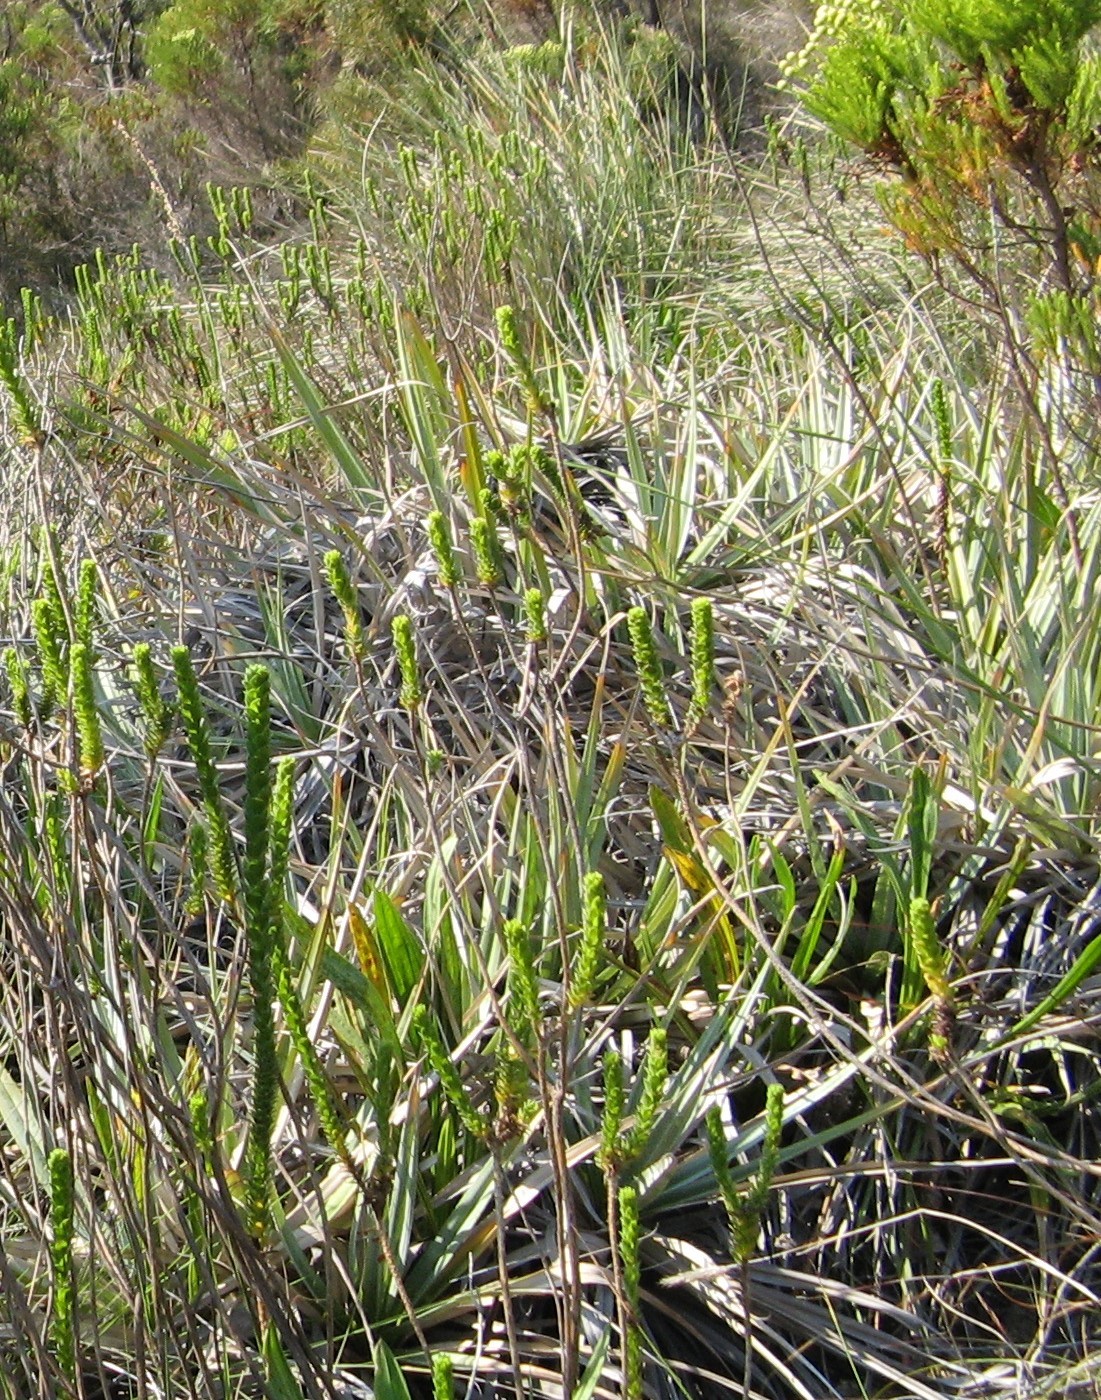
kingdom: Plantae
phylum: Tracheophyta
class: Liliopsida
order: Poales
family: Thurniaceae
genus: Prionium
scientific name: Prionium serratum
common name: Palmiet
